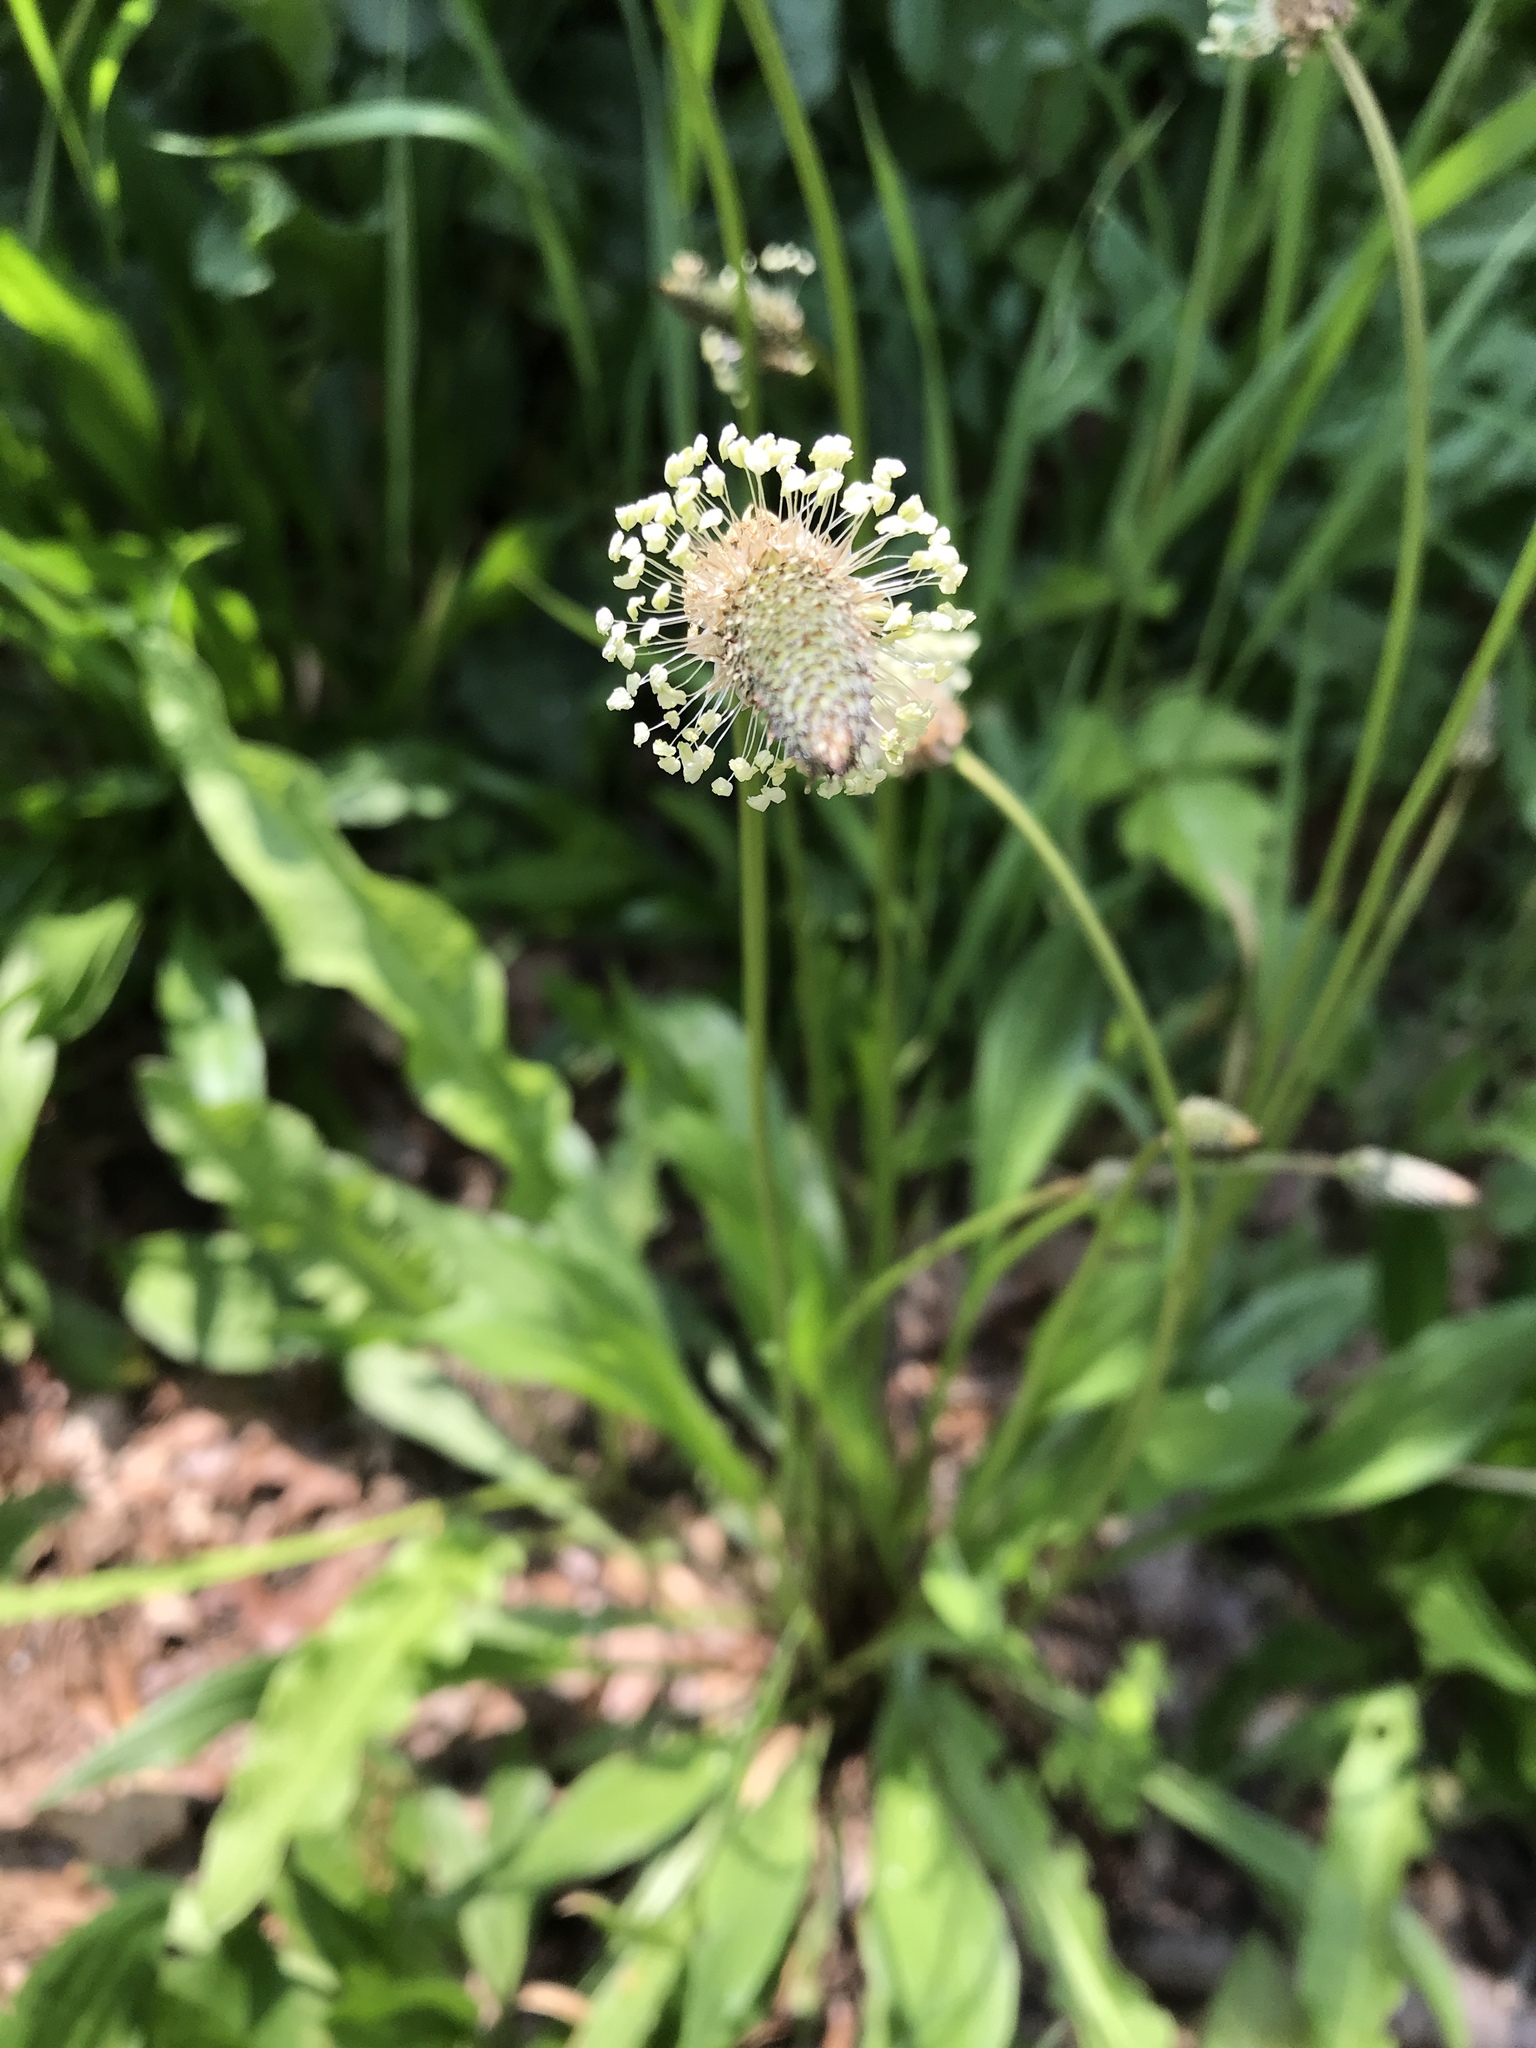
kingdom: Plantae
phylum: Tracheophyta
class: Magnoliopsida
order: Lamiales
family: Plantaginaceae
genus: Plantago
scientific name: Plantago lanceolata
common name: Ribwort plantain
